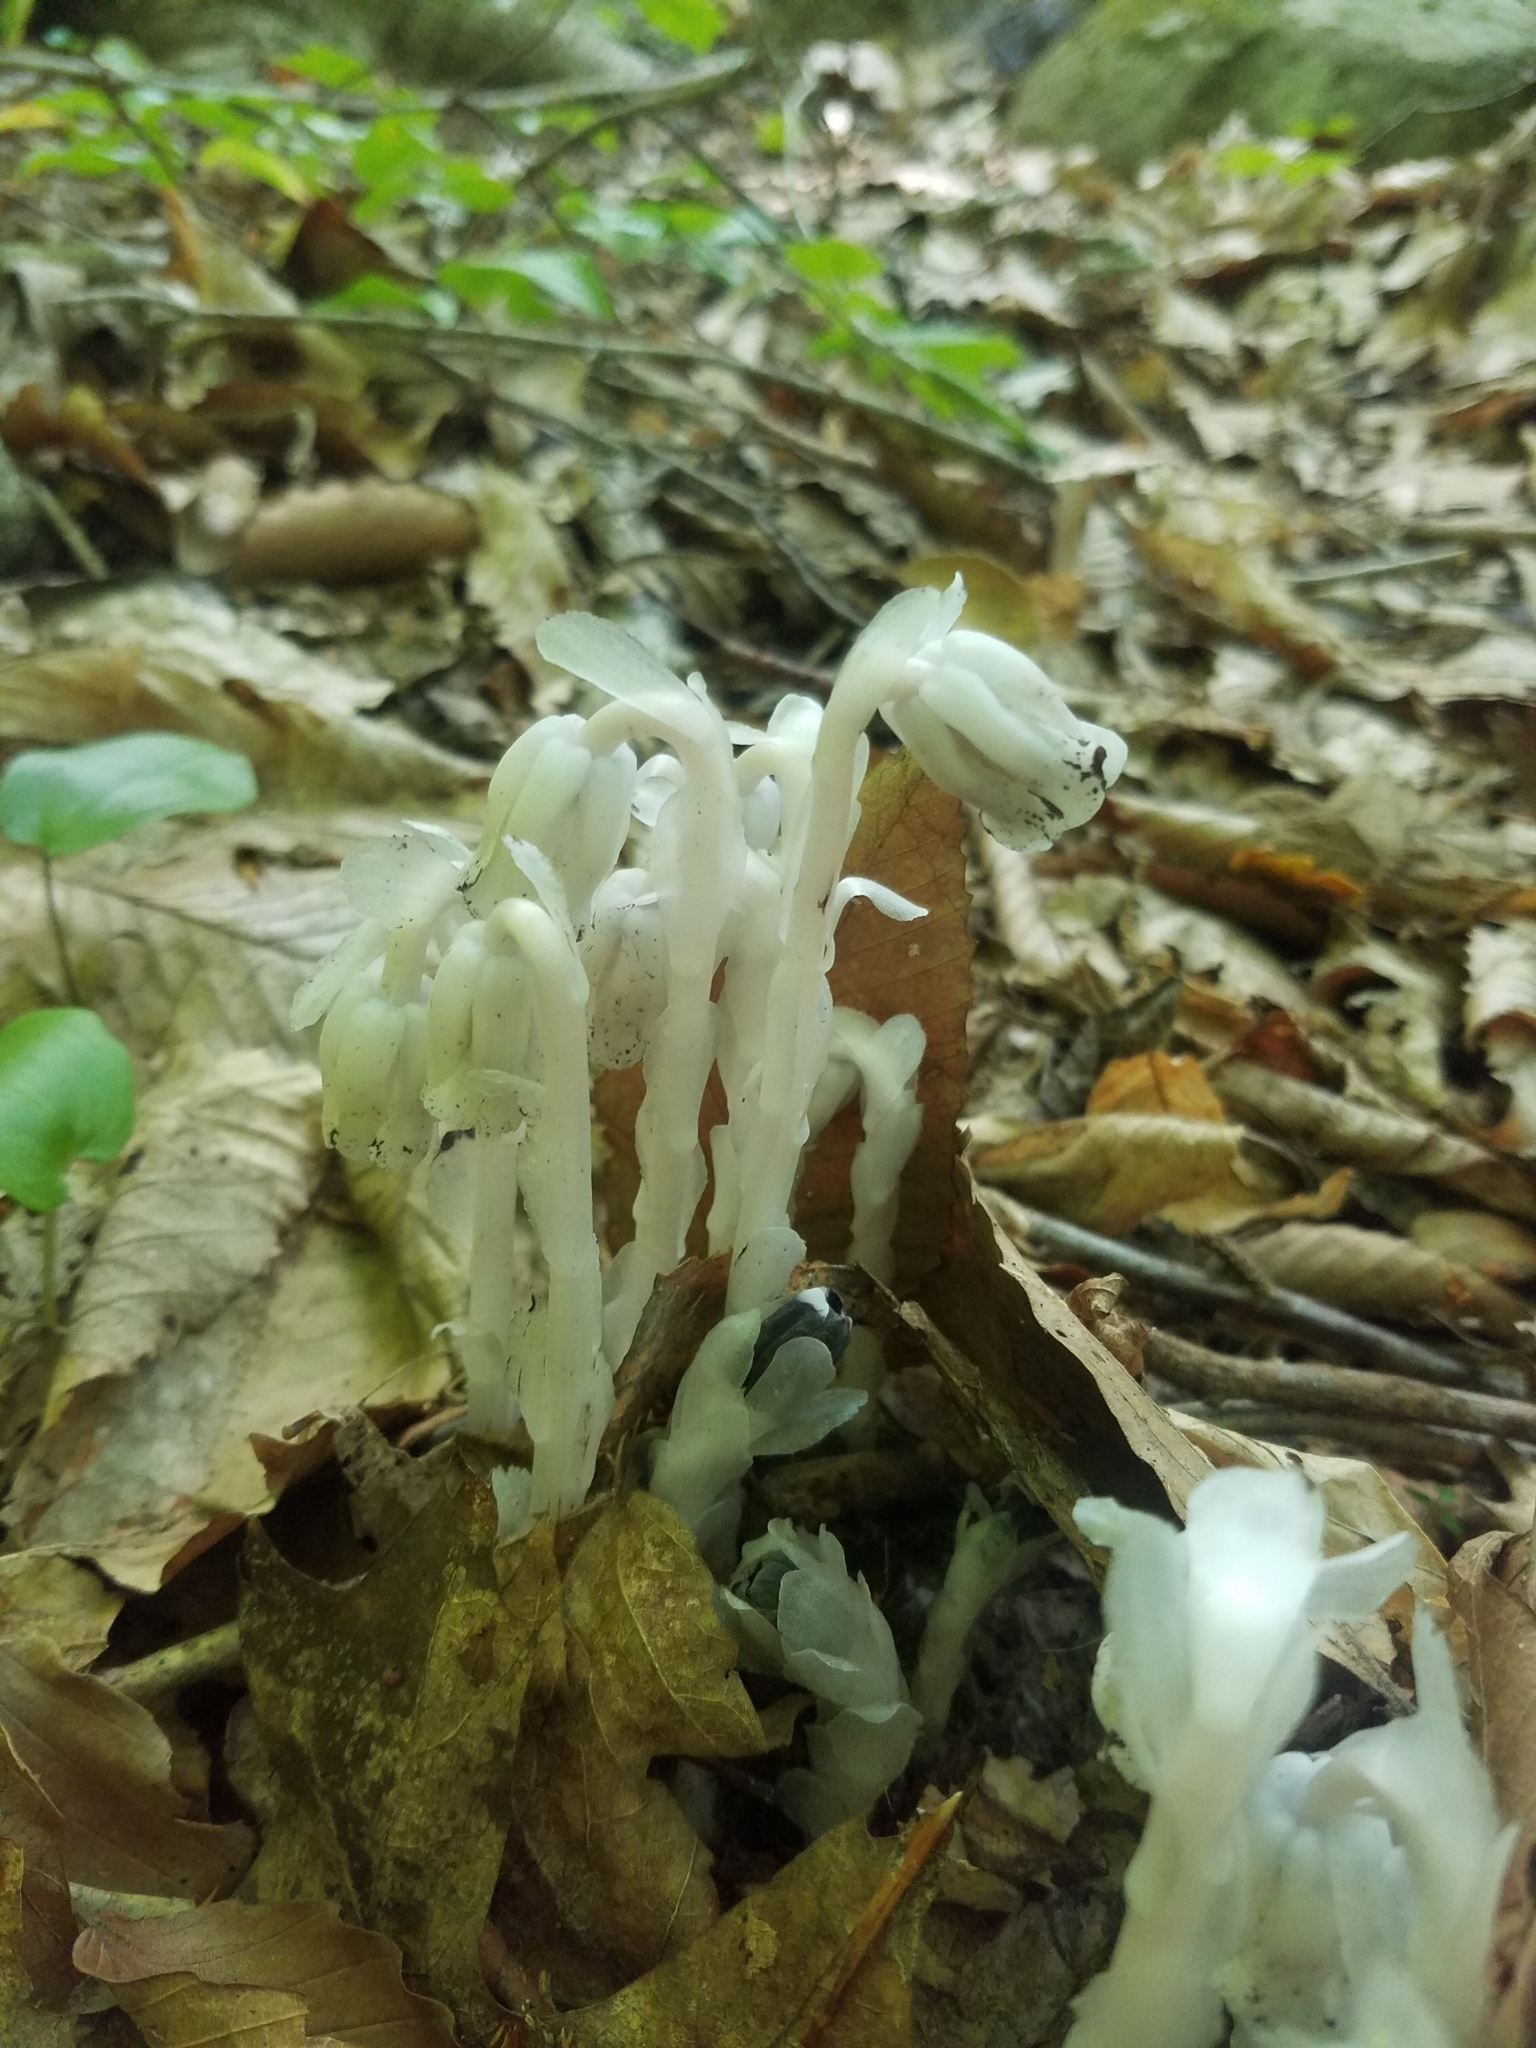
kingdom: Plantae
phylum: Tracheophyta
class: Magnoliopsida
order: Ericales
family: Ericaceae
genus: Monotropa
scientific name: Monotropa uniflora
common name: Convulsion root
